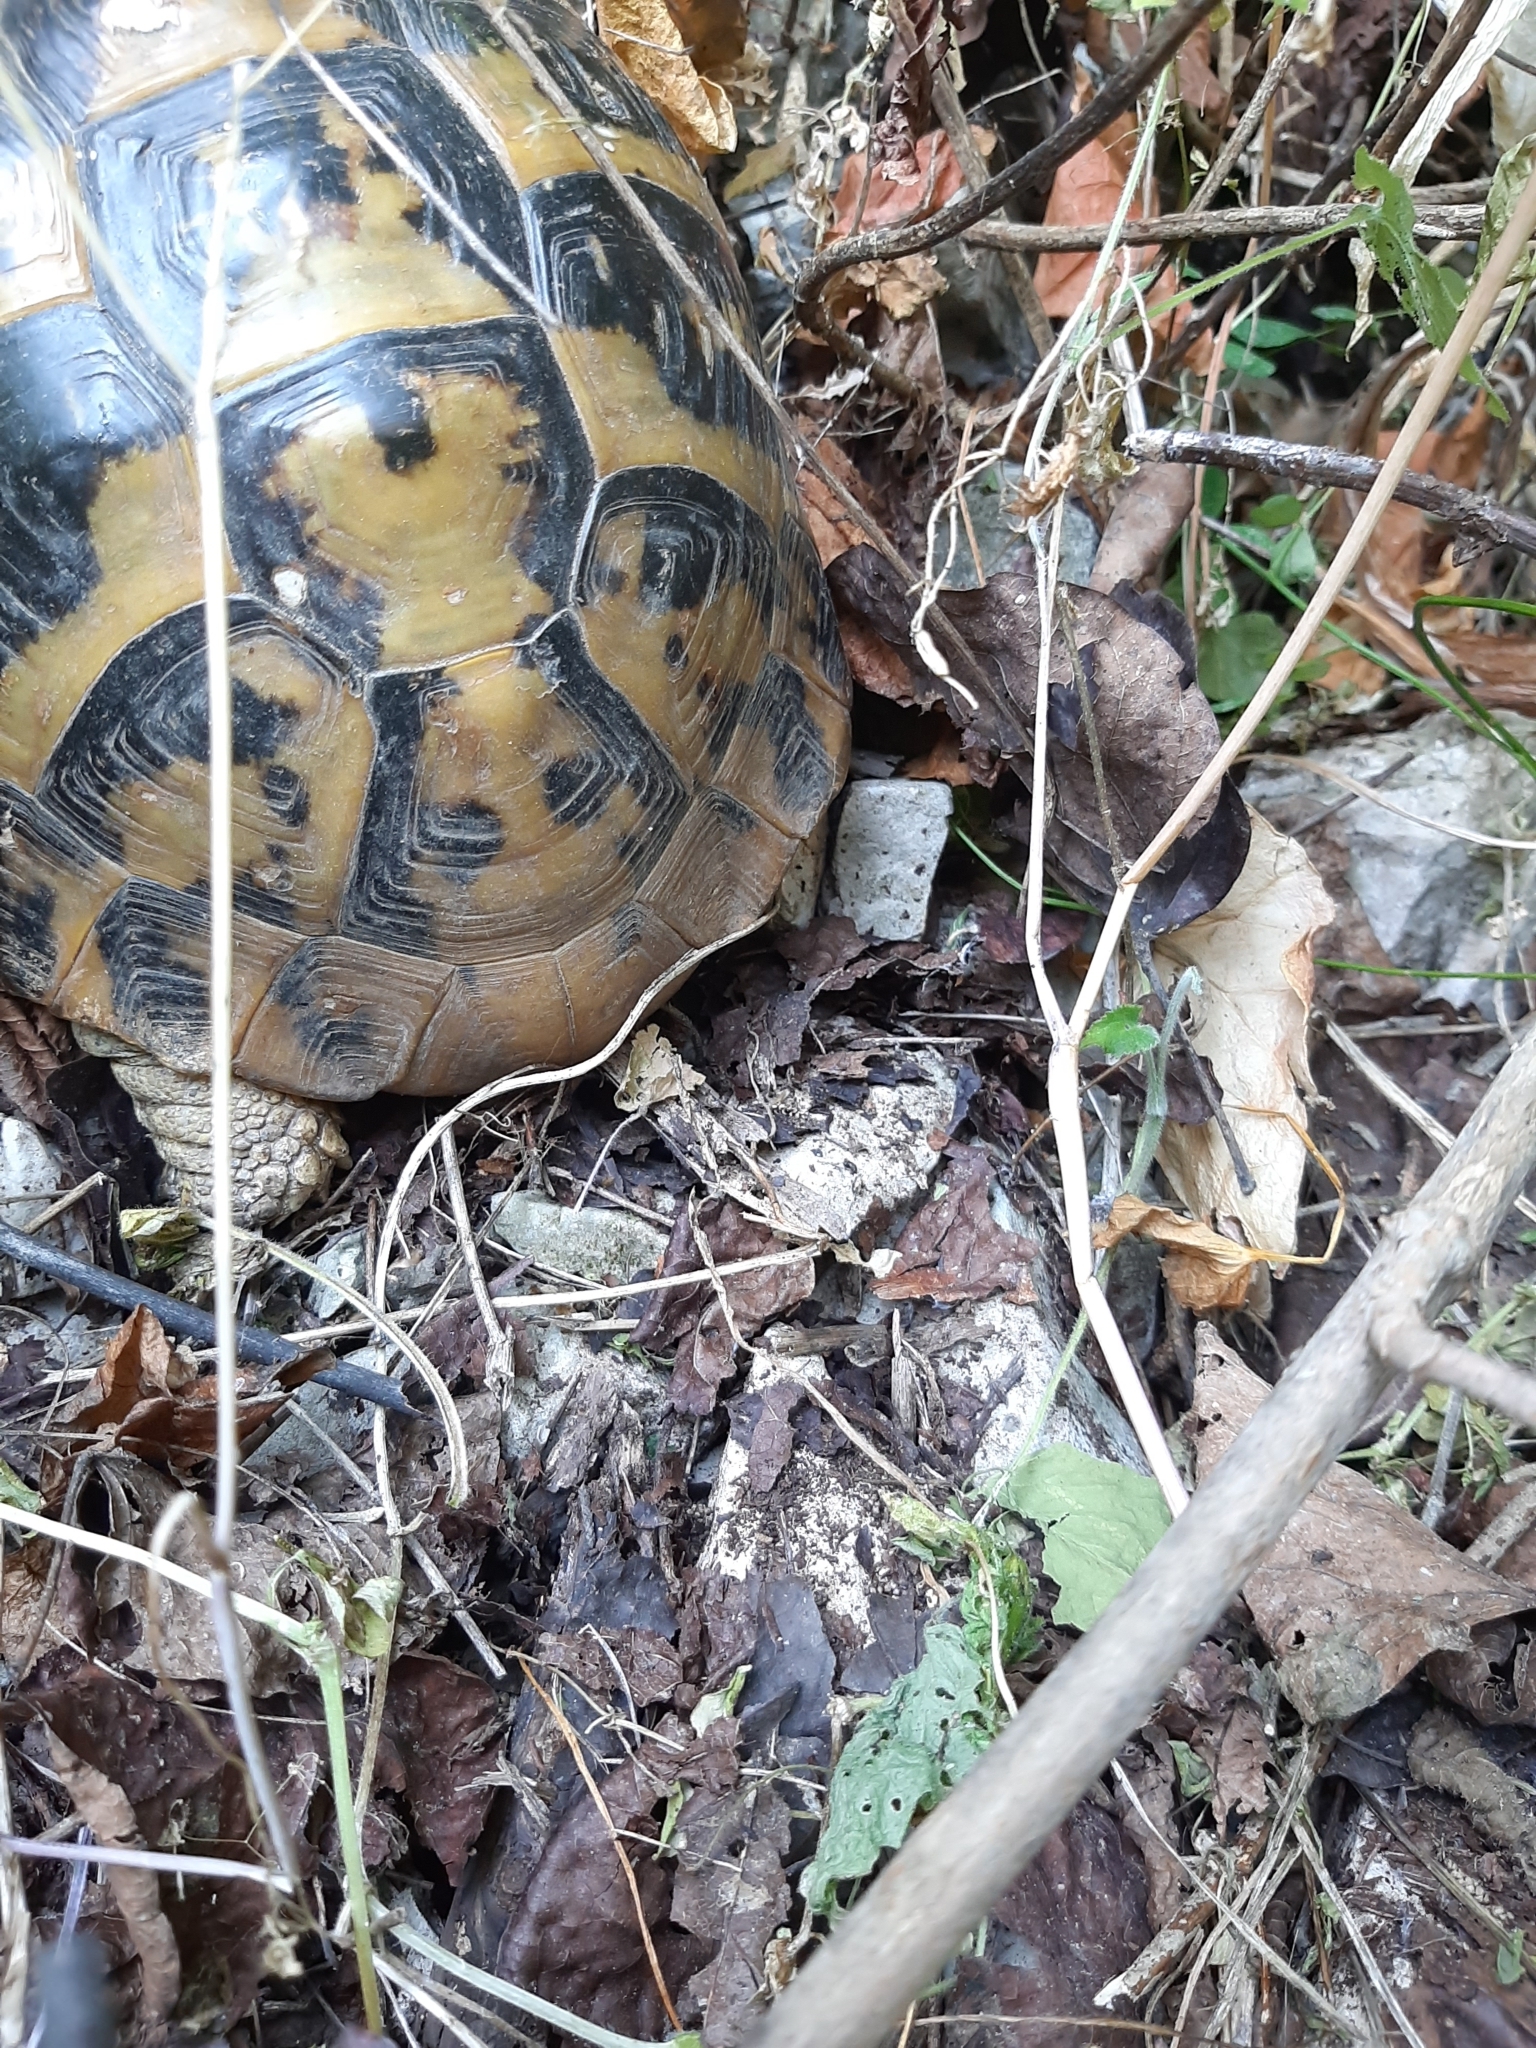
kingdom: Animalia
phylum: Chordata
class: Testudines
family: Testudinidae
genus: Testudo
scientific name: Testudo hermanni
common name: Hermann's tortoise
